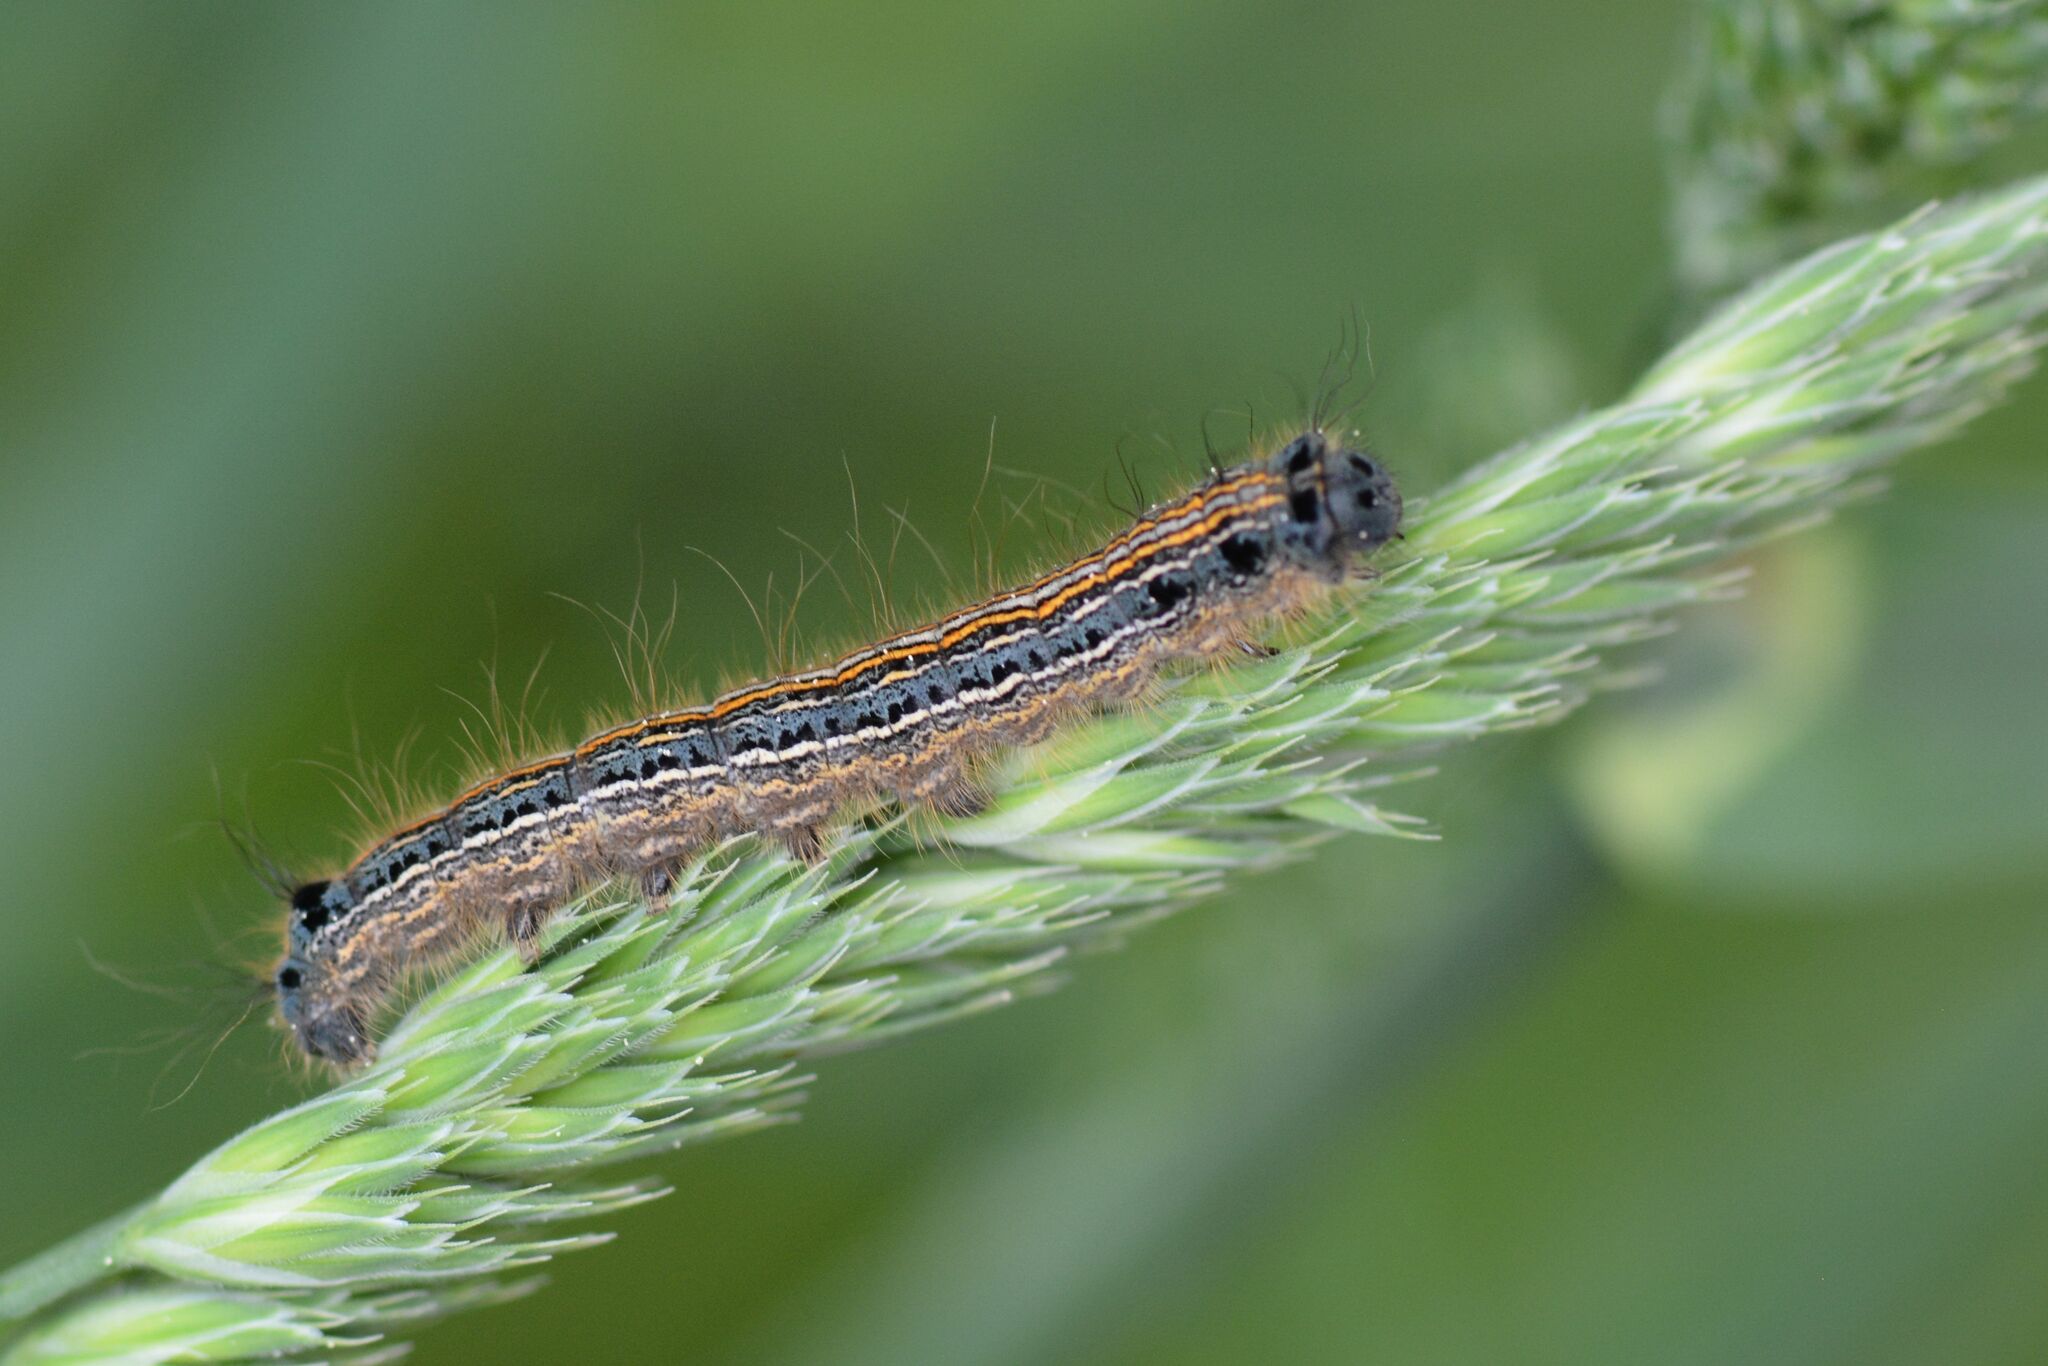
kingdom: Animalia
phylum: Arthropoda
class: Insecta
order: Lepidoptera
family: Lasiocampidae
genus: Malacosoma
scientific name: Malacosoma neustria
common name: The lackey
